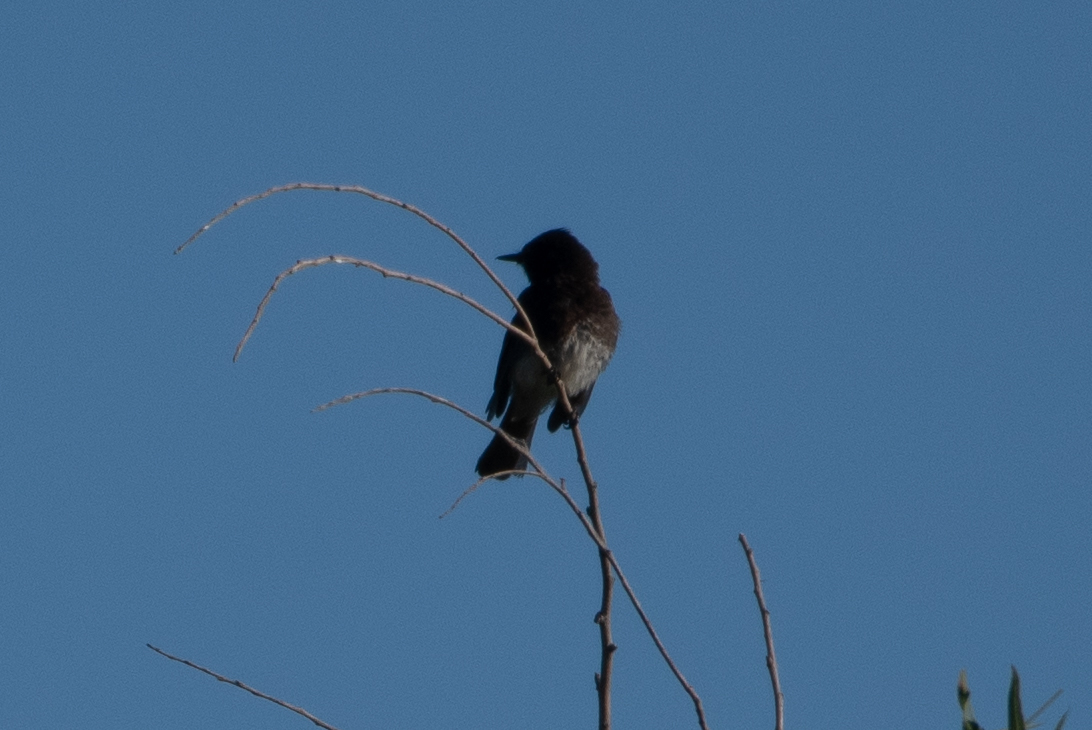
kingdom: Animalia
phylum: Chordata
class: Aves
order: Passeriformes
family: Tyrannidae
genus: Sayornis
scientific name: Sayornis nigricans
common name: Black phoebe
